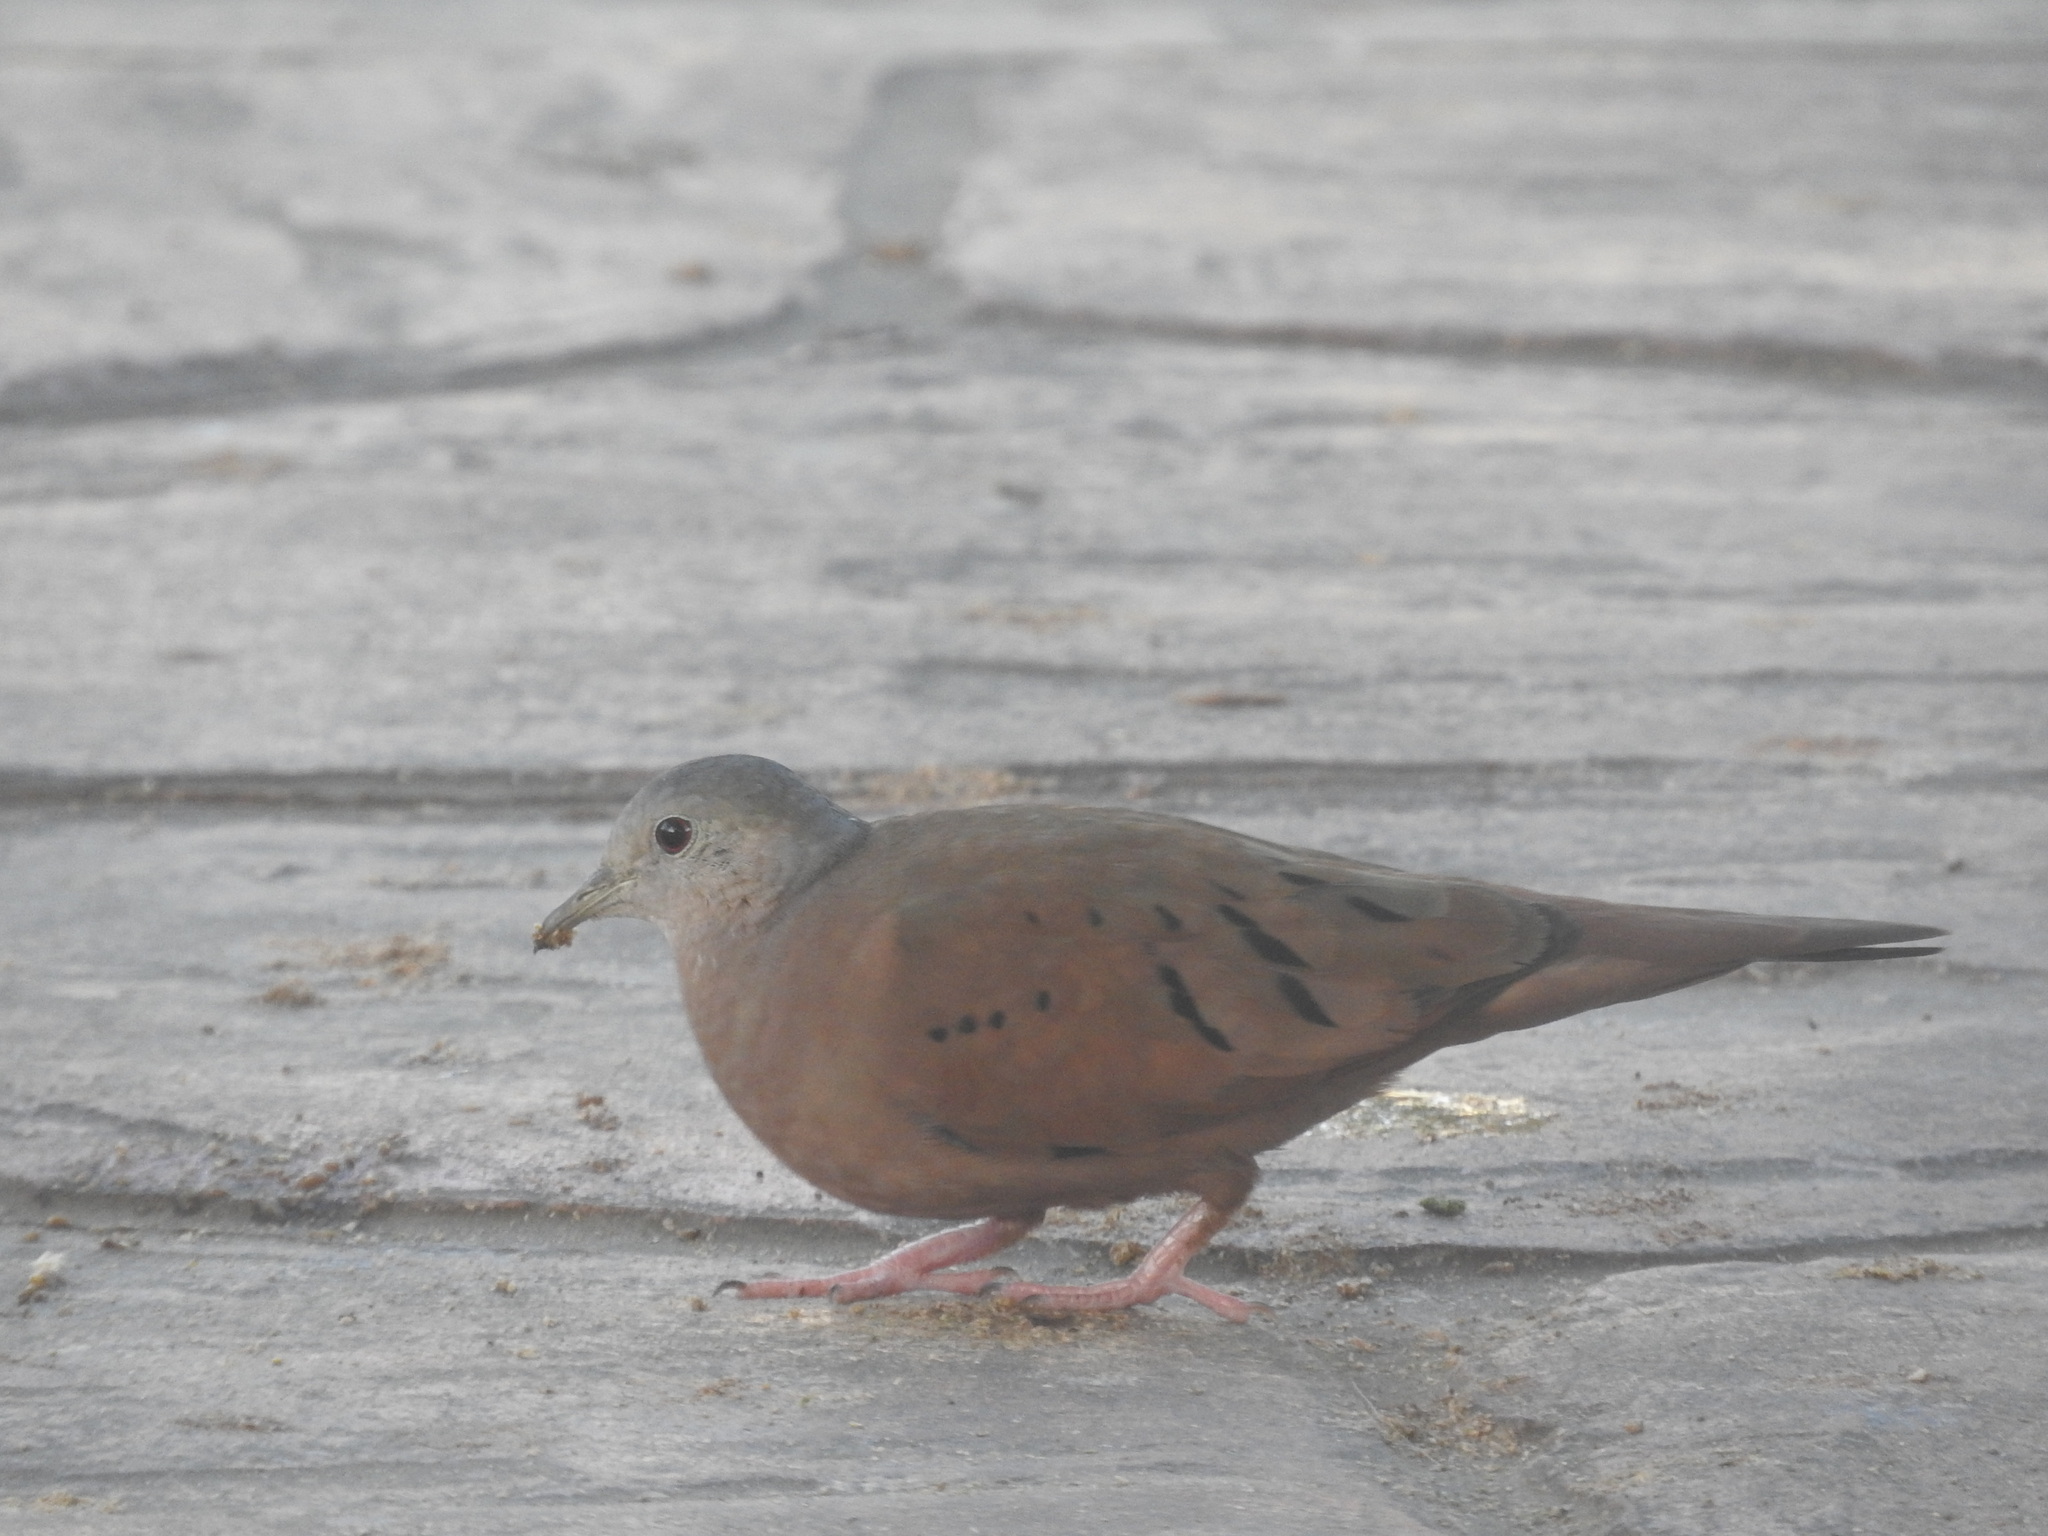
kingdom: Animalia
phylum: Chordata
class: Aves
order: Columbiformes
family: Columbidae
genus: Columbina
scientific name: Columbina talpacoti
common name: Ruddy ground dove
